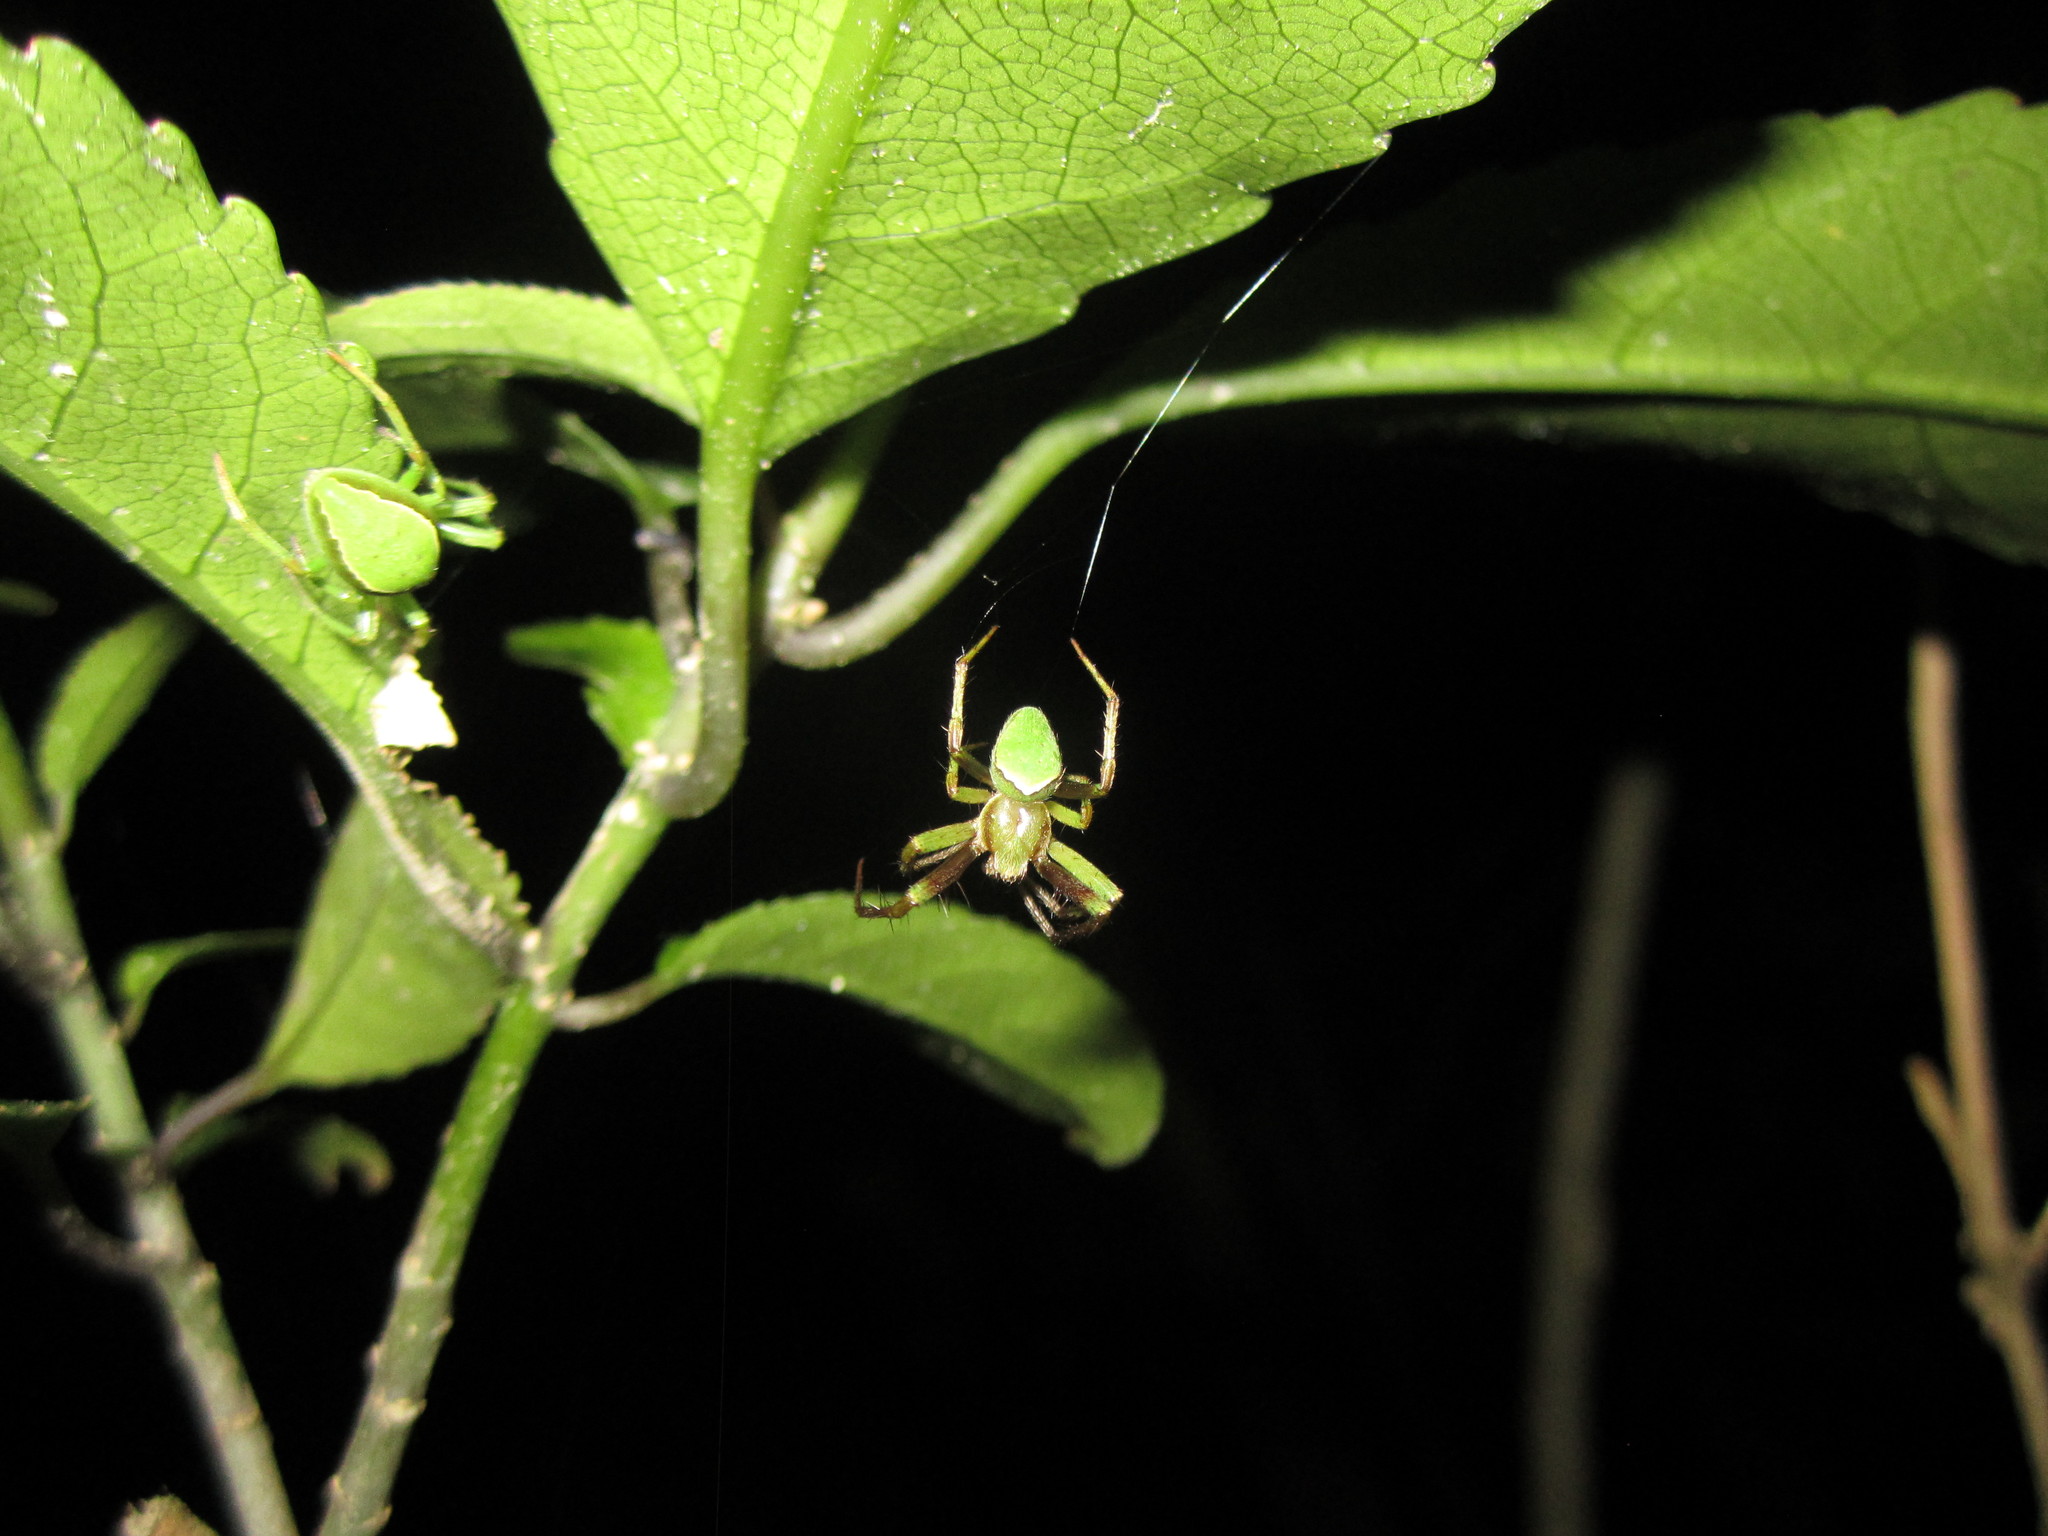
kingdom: Animalia
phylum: Arthropoda
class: Arachnida
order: Araneae
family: Araneidae
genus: Colaranea
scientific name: Colaranea viriditas
